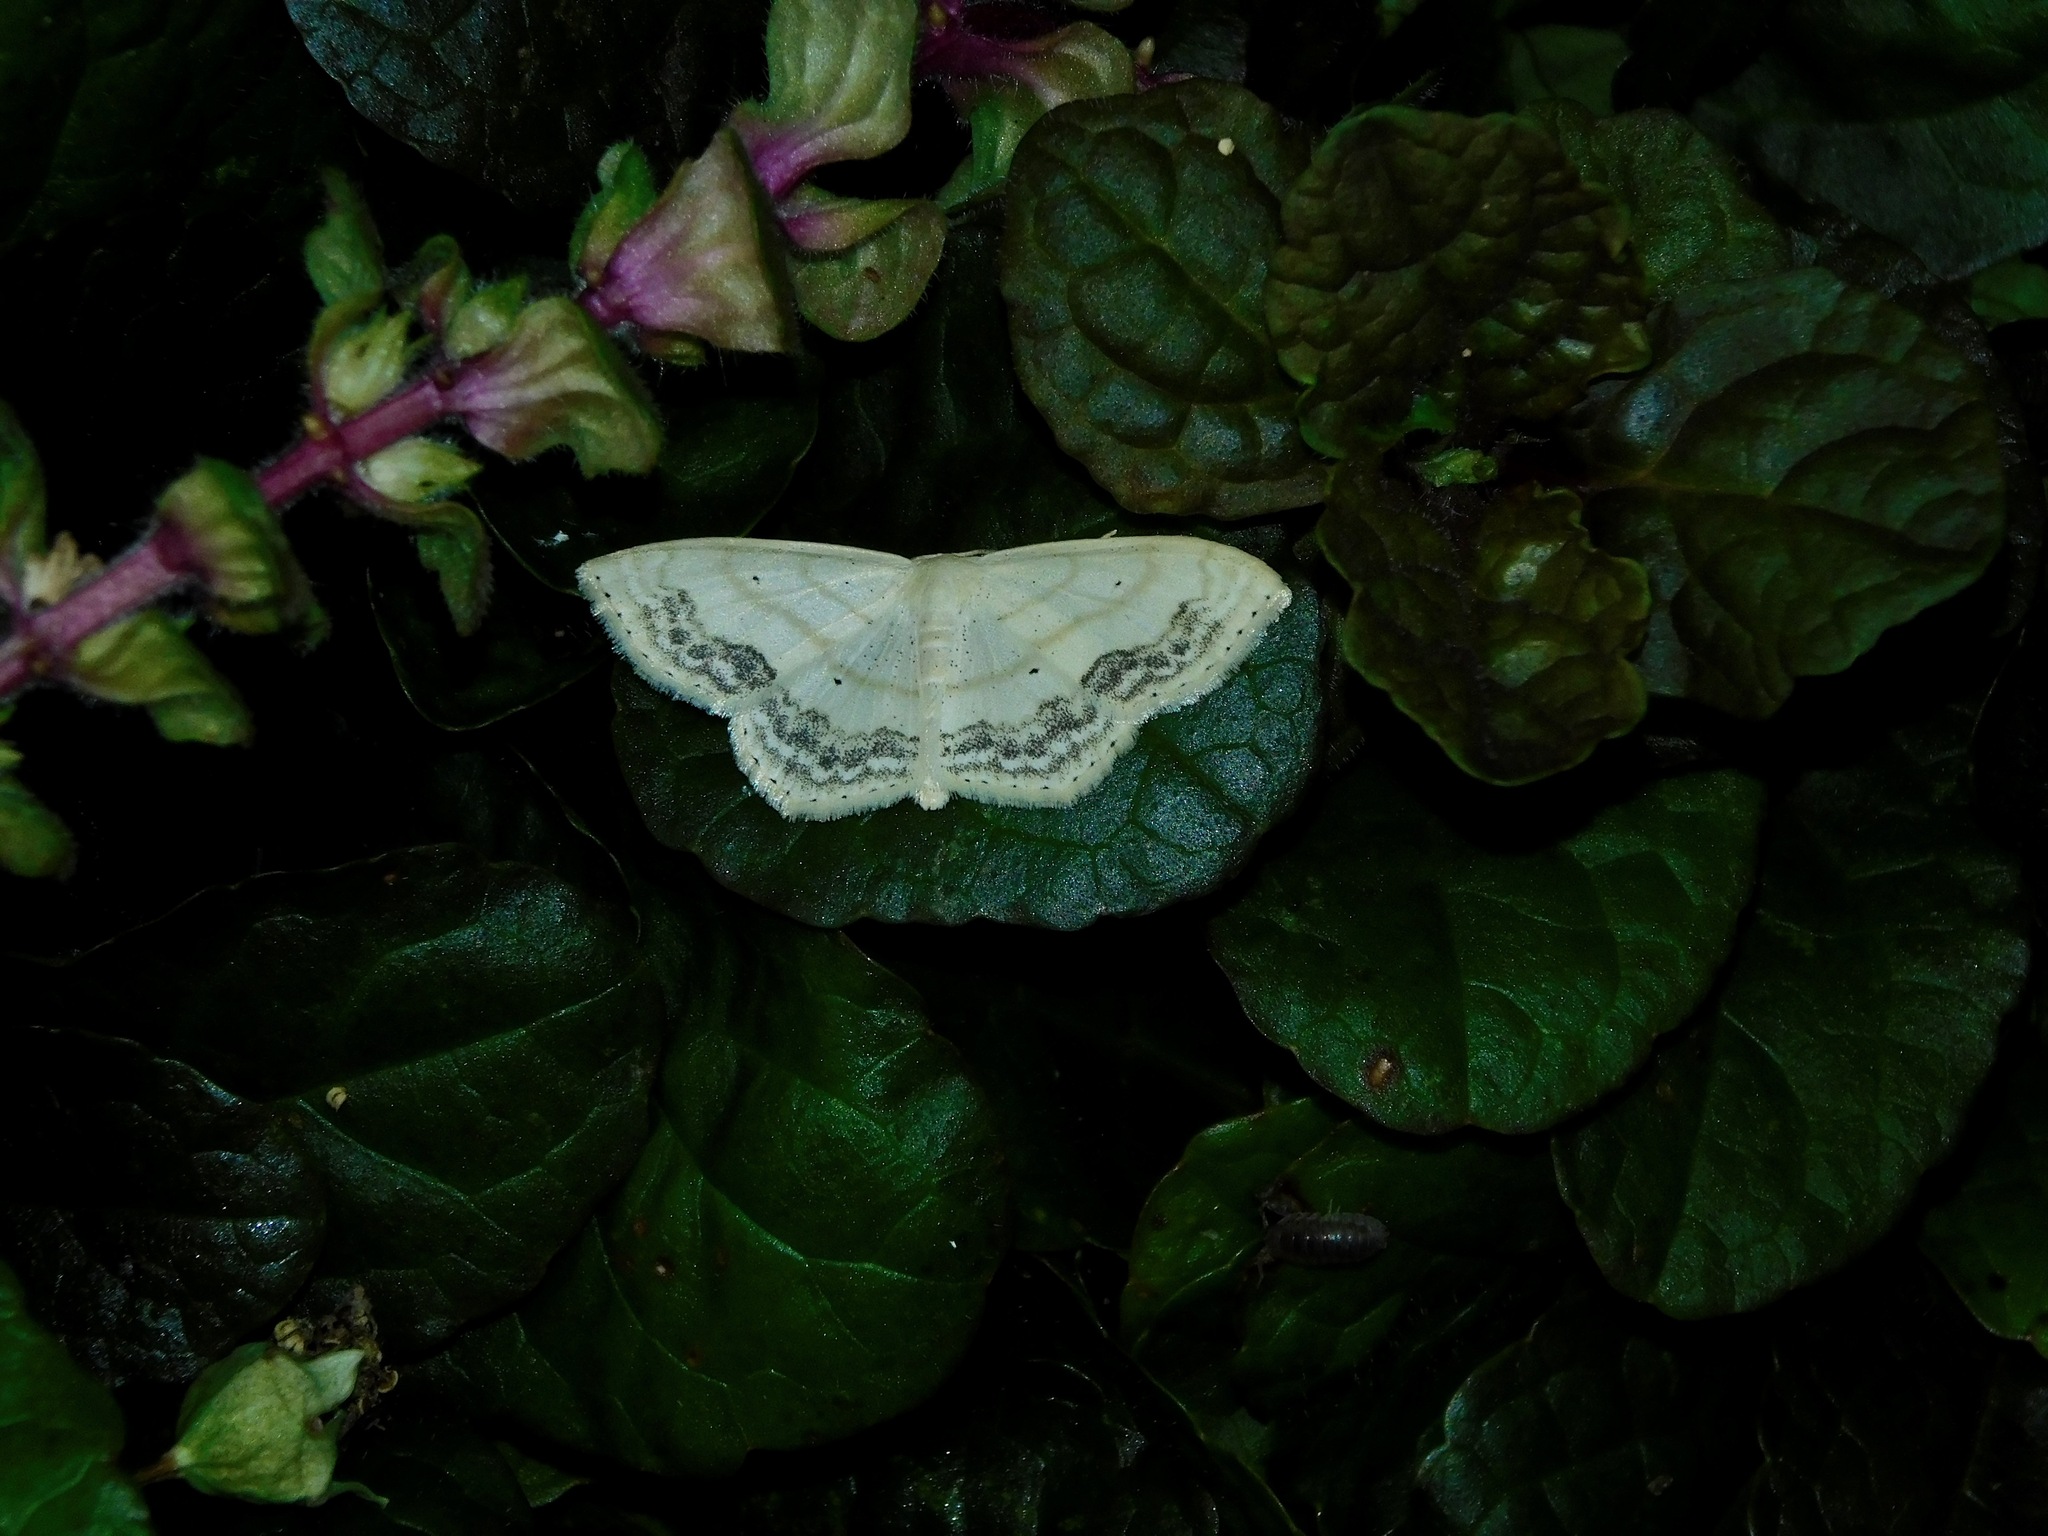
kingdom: Animalia
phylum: Arthropoda
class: Insecta
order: Lepidoptera
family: Geometridae
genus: Scopula
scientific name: Scopula limboundata
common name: Large lace border
